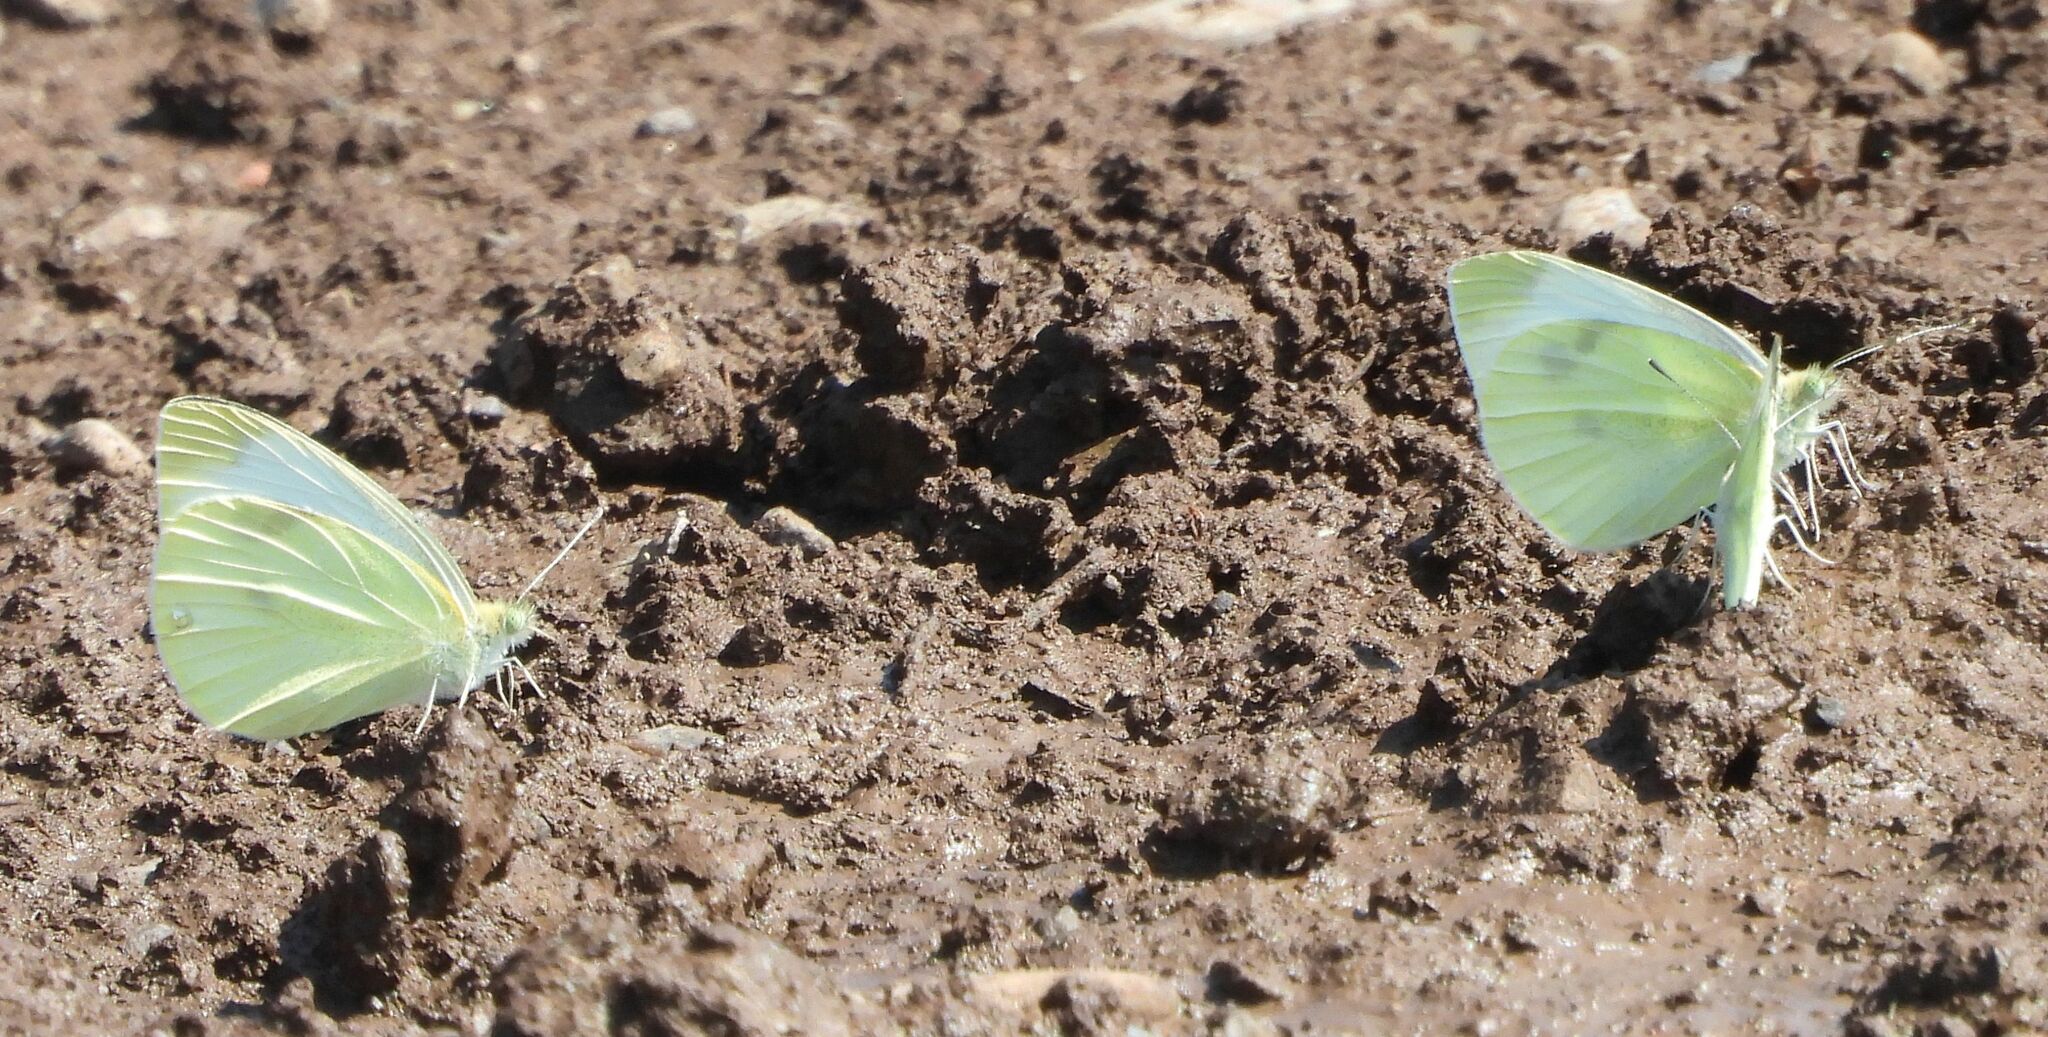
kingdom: Animalia
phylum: Arthropoda
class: Insecta
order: Lepidoptera
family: Pieridae
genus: Pieris
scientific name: Pieris rapae
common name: Small white
